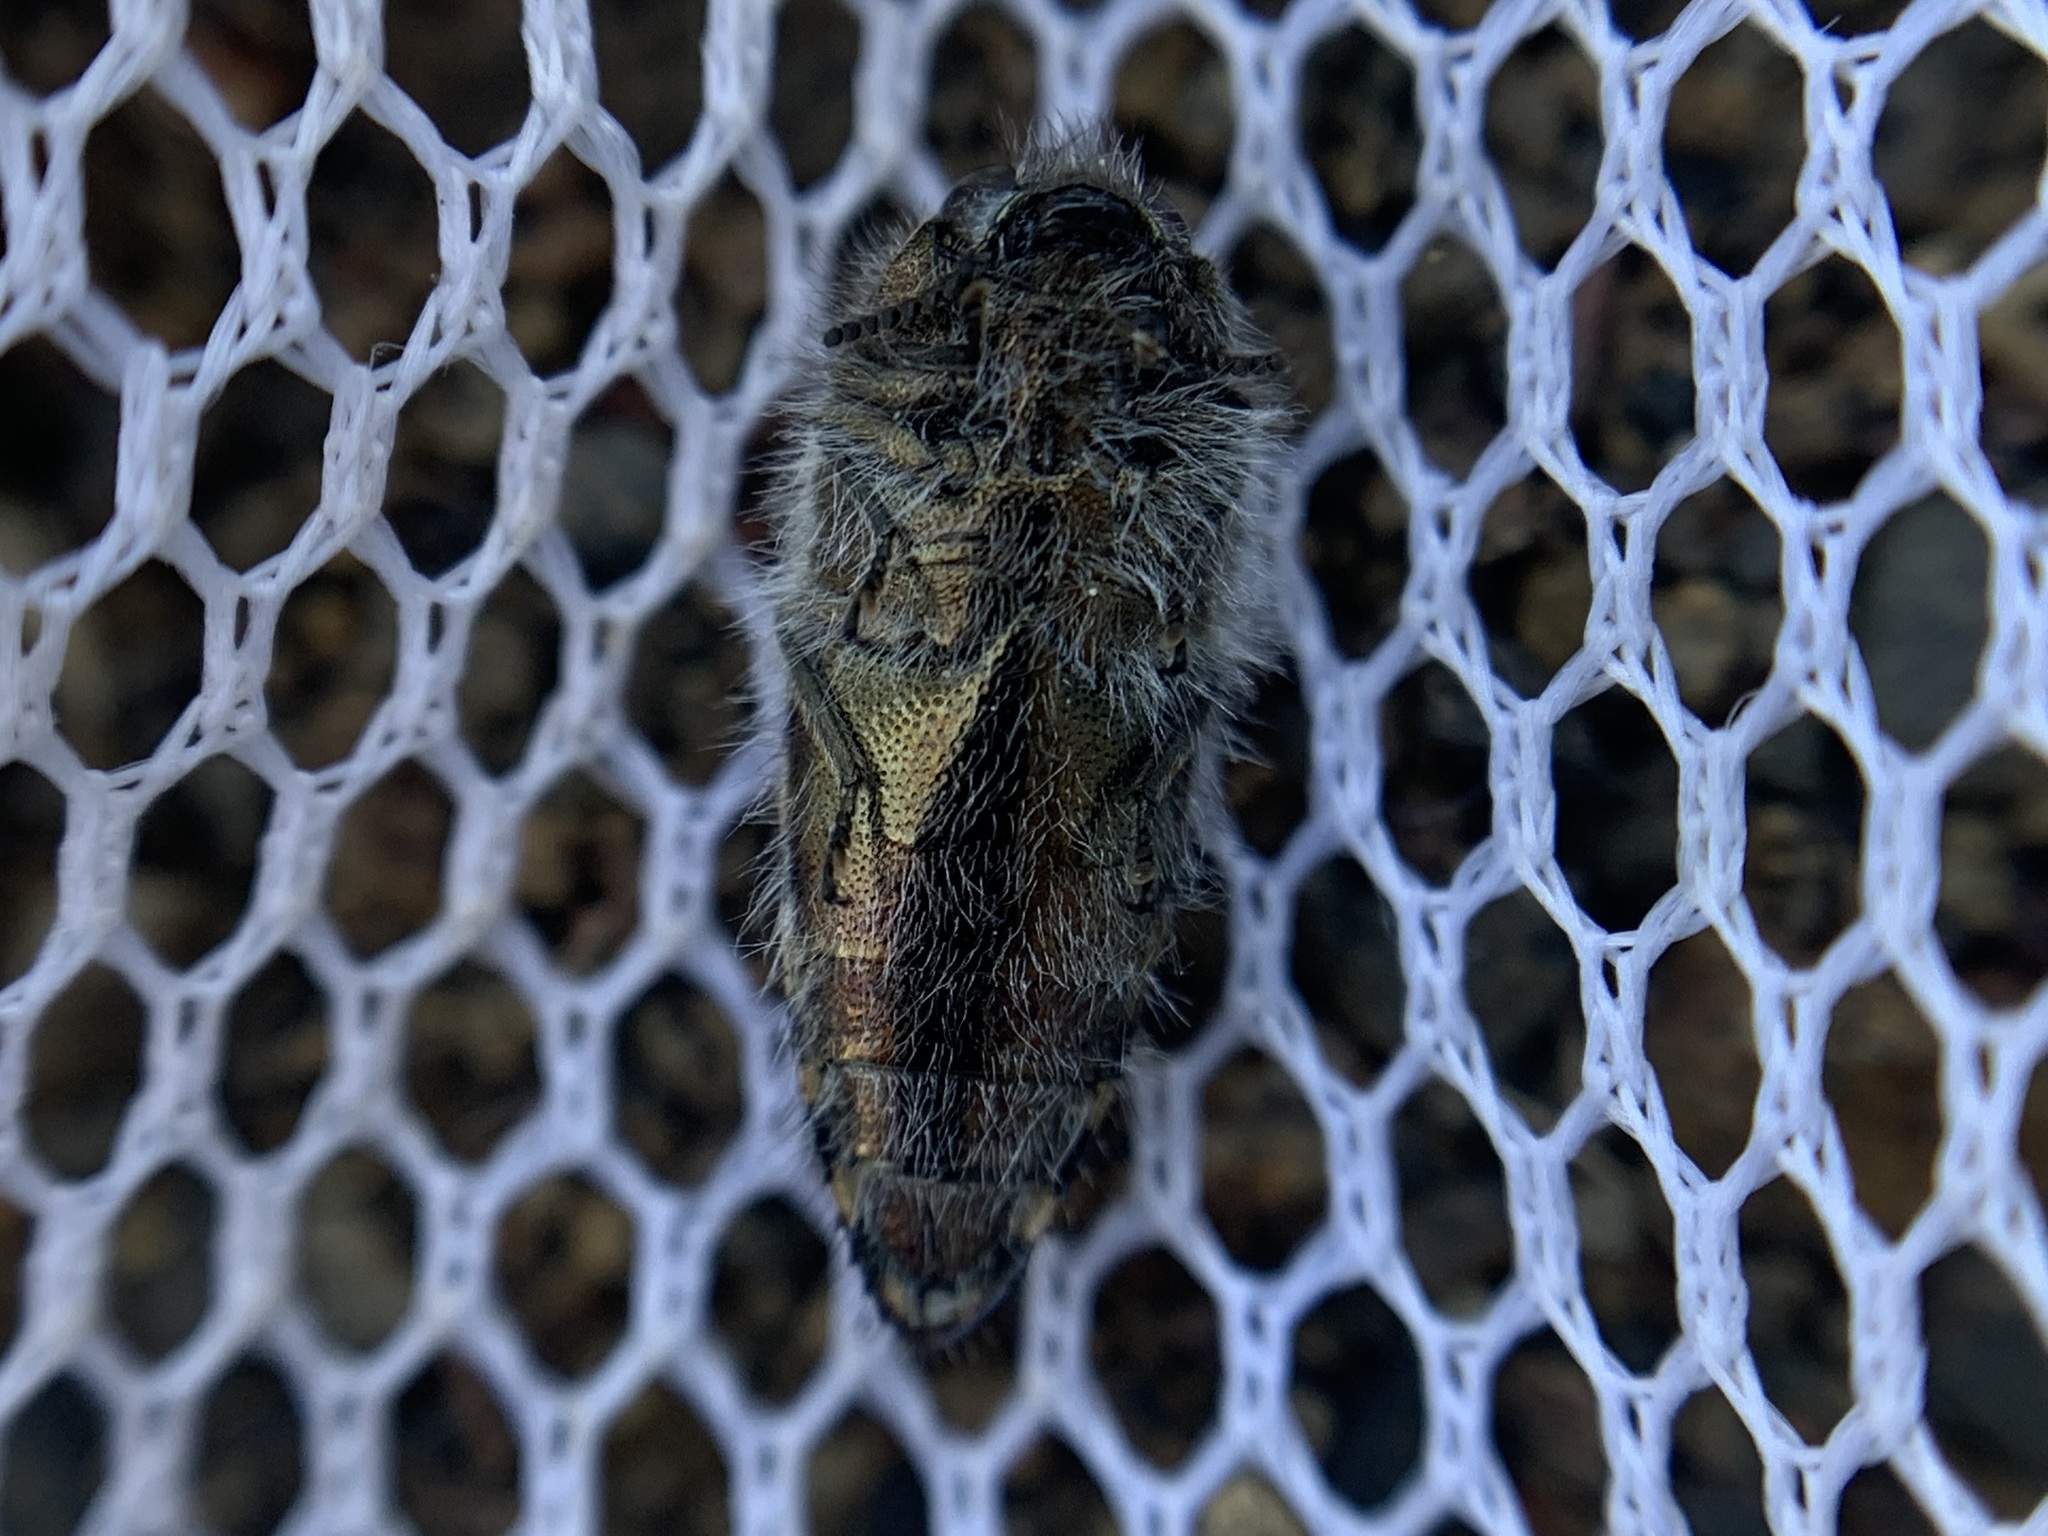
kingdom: Animalia
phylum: Arthropoda
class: Insecta
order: Coleoptera
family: Buprestidae
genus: Acmaeodera
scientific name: Acmaeodera connexa
